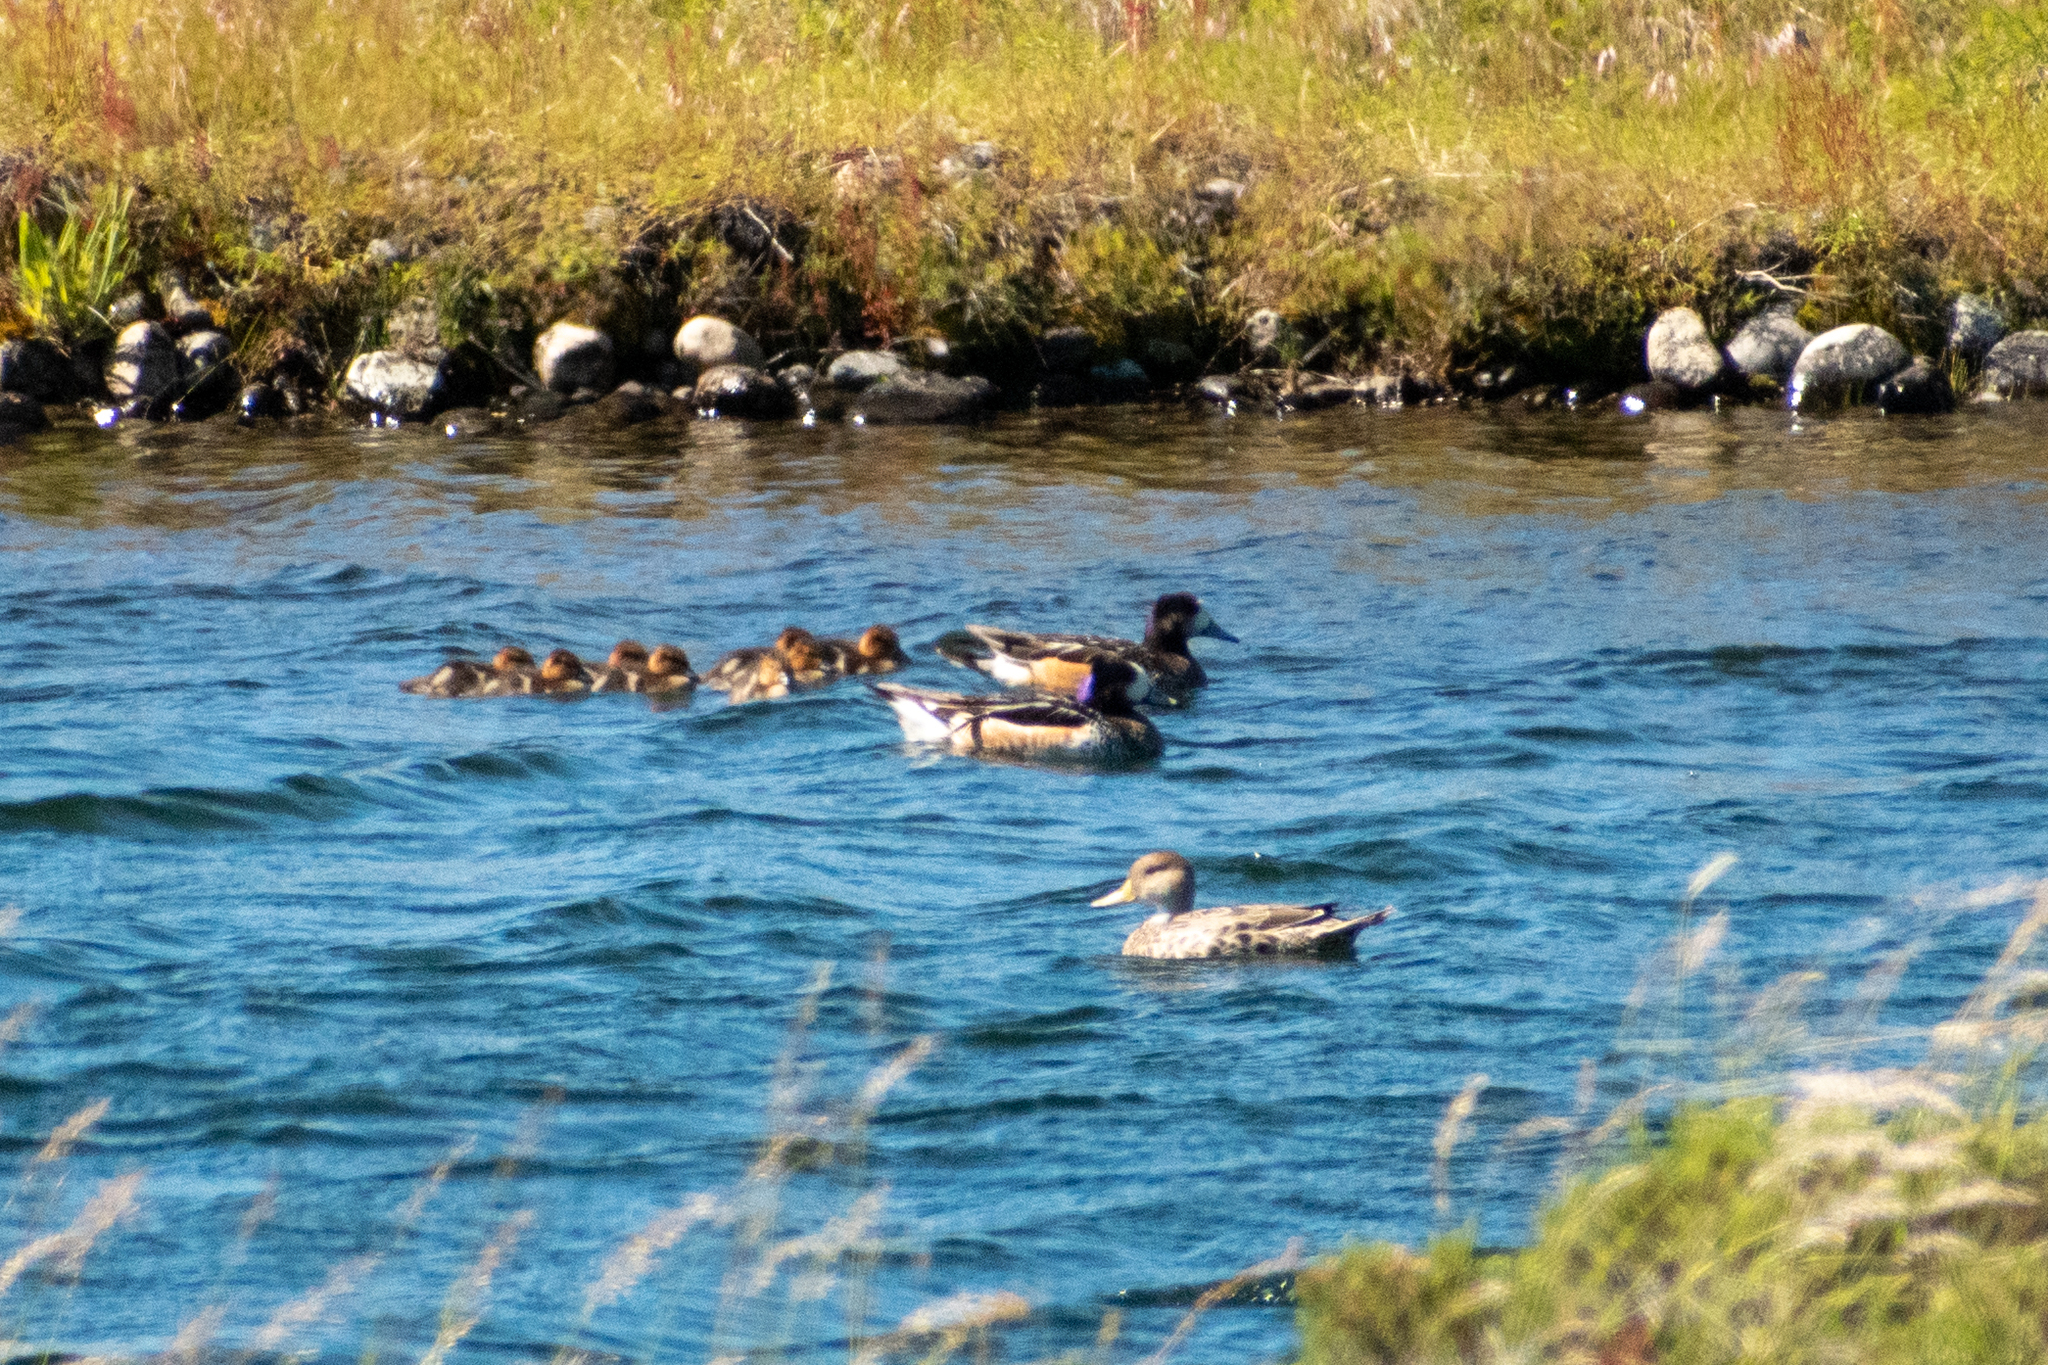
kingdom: Animalia
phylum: Chordata
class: Aves
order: Anseriformes
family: Anatidae
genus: Mareca
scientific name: Mareca sibilatrix
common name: Chiloe wigeon
